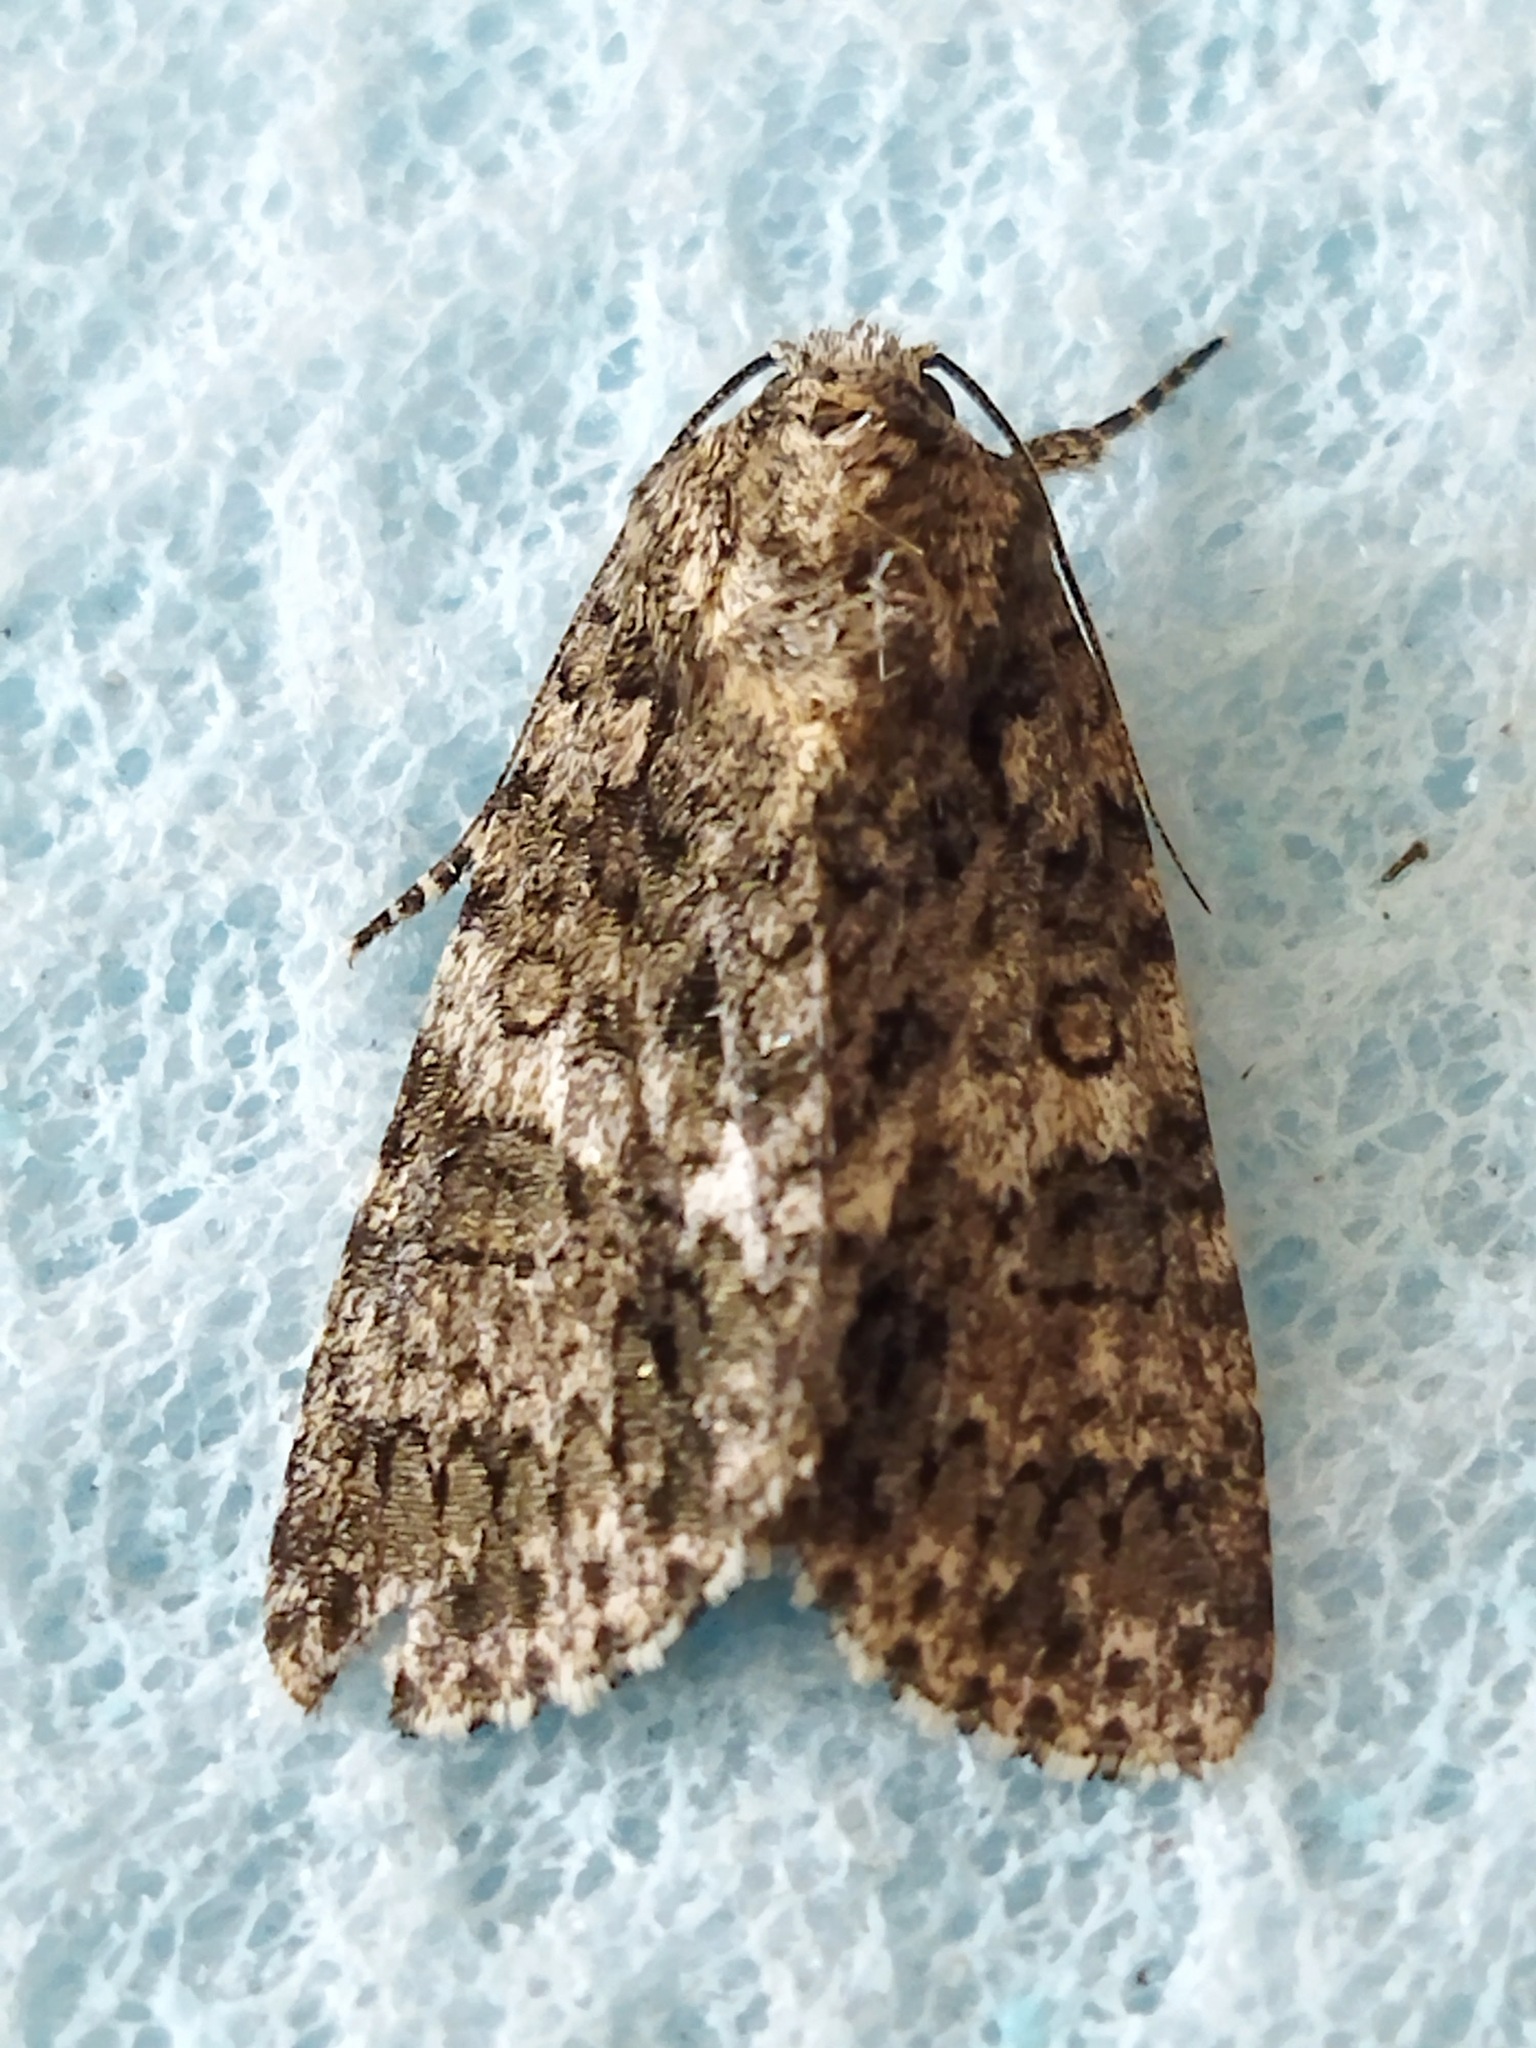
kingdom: Animalia
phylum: Arthropoda
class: Insecta
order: Lepidoptera
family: Noctuidae
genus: Acronicta
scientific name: Acronicta rumicis
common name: Knot grass
